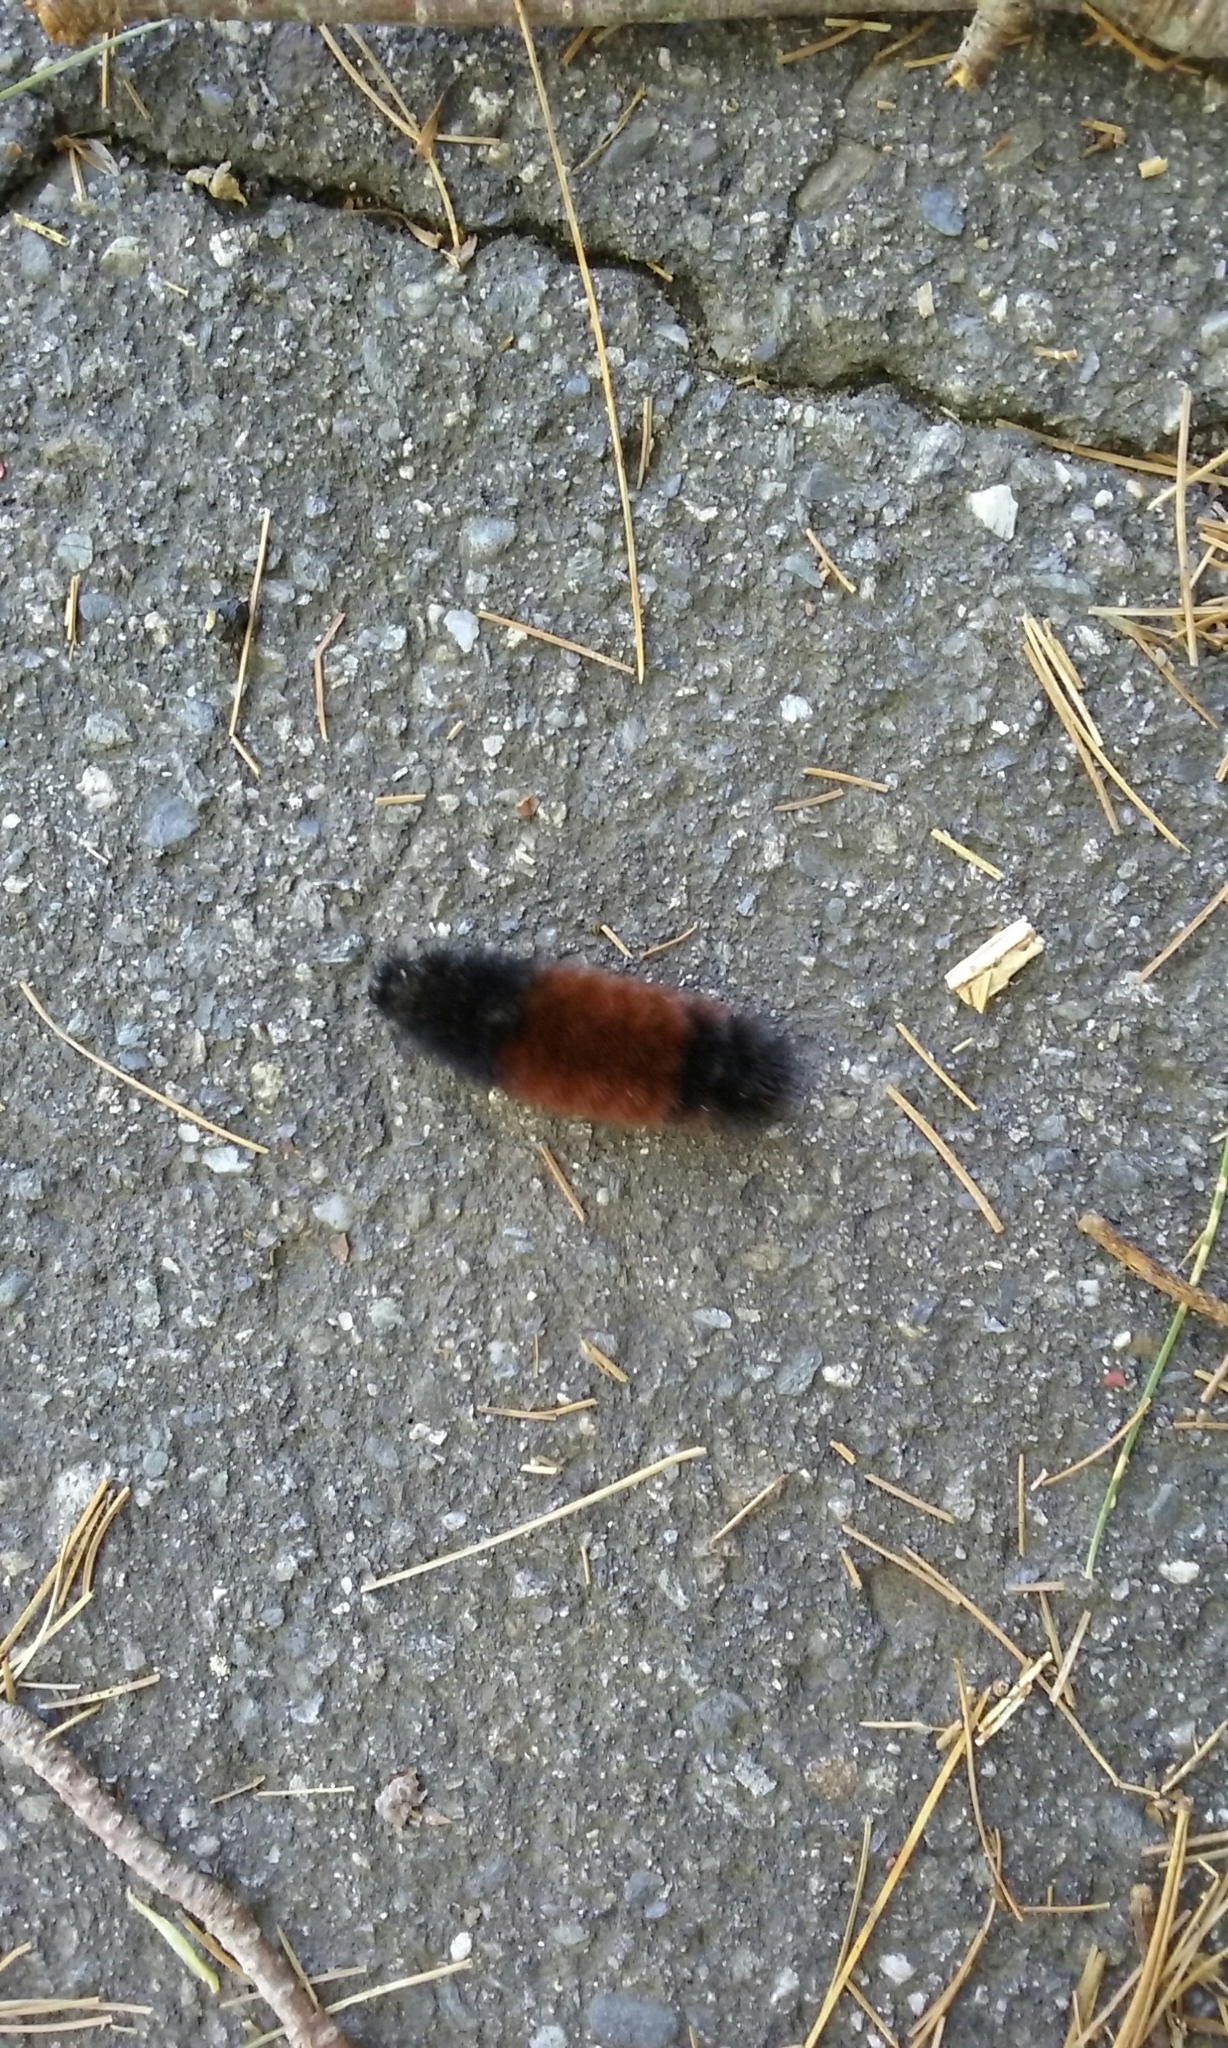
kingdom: Animalia
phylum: Arthropoda
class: Insecta
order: Lepidoptera
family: Erebidae
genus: Pyrrharctia
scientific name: Pyrrharctia isabella
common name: Isabella tiger moth
